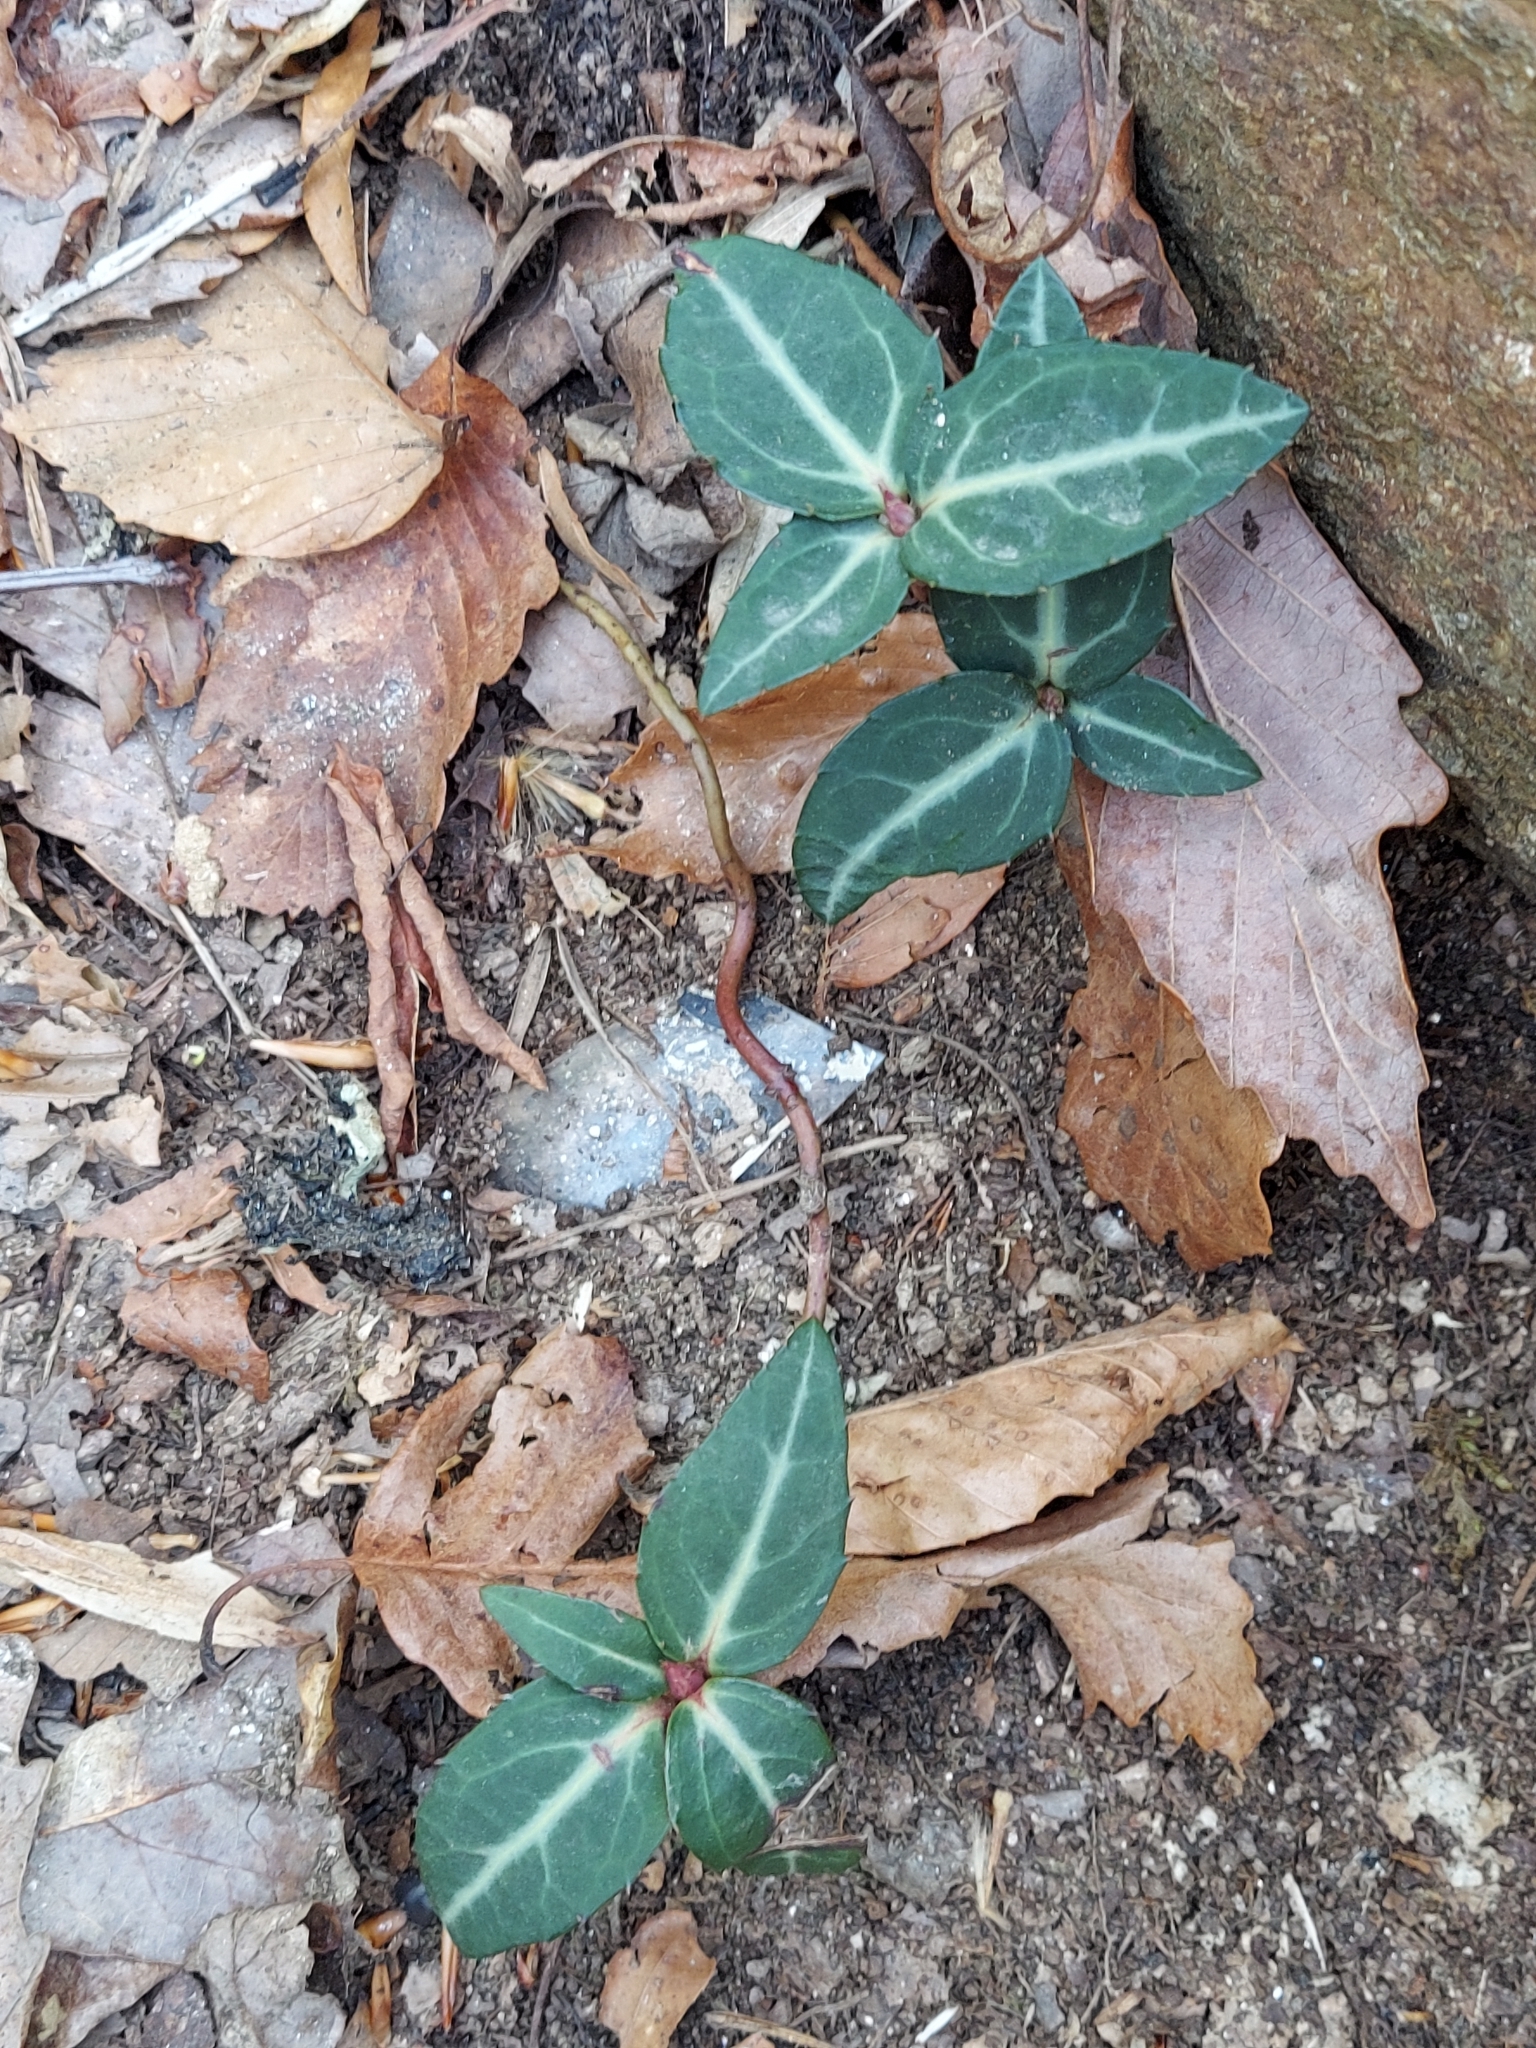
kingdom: Plantae
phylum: Tracheophyta
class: Magnoliopsida
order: Ericales
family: Ericaceae
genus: Chimaphila
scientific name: Chimaphila maculata
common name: Spotted pipsissewa
